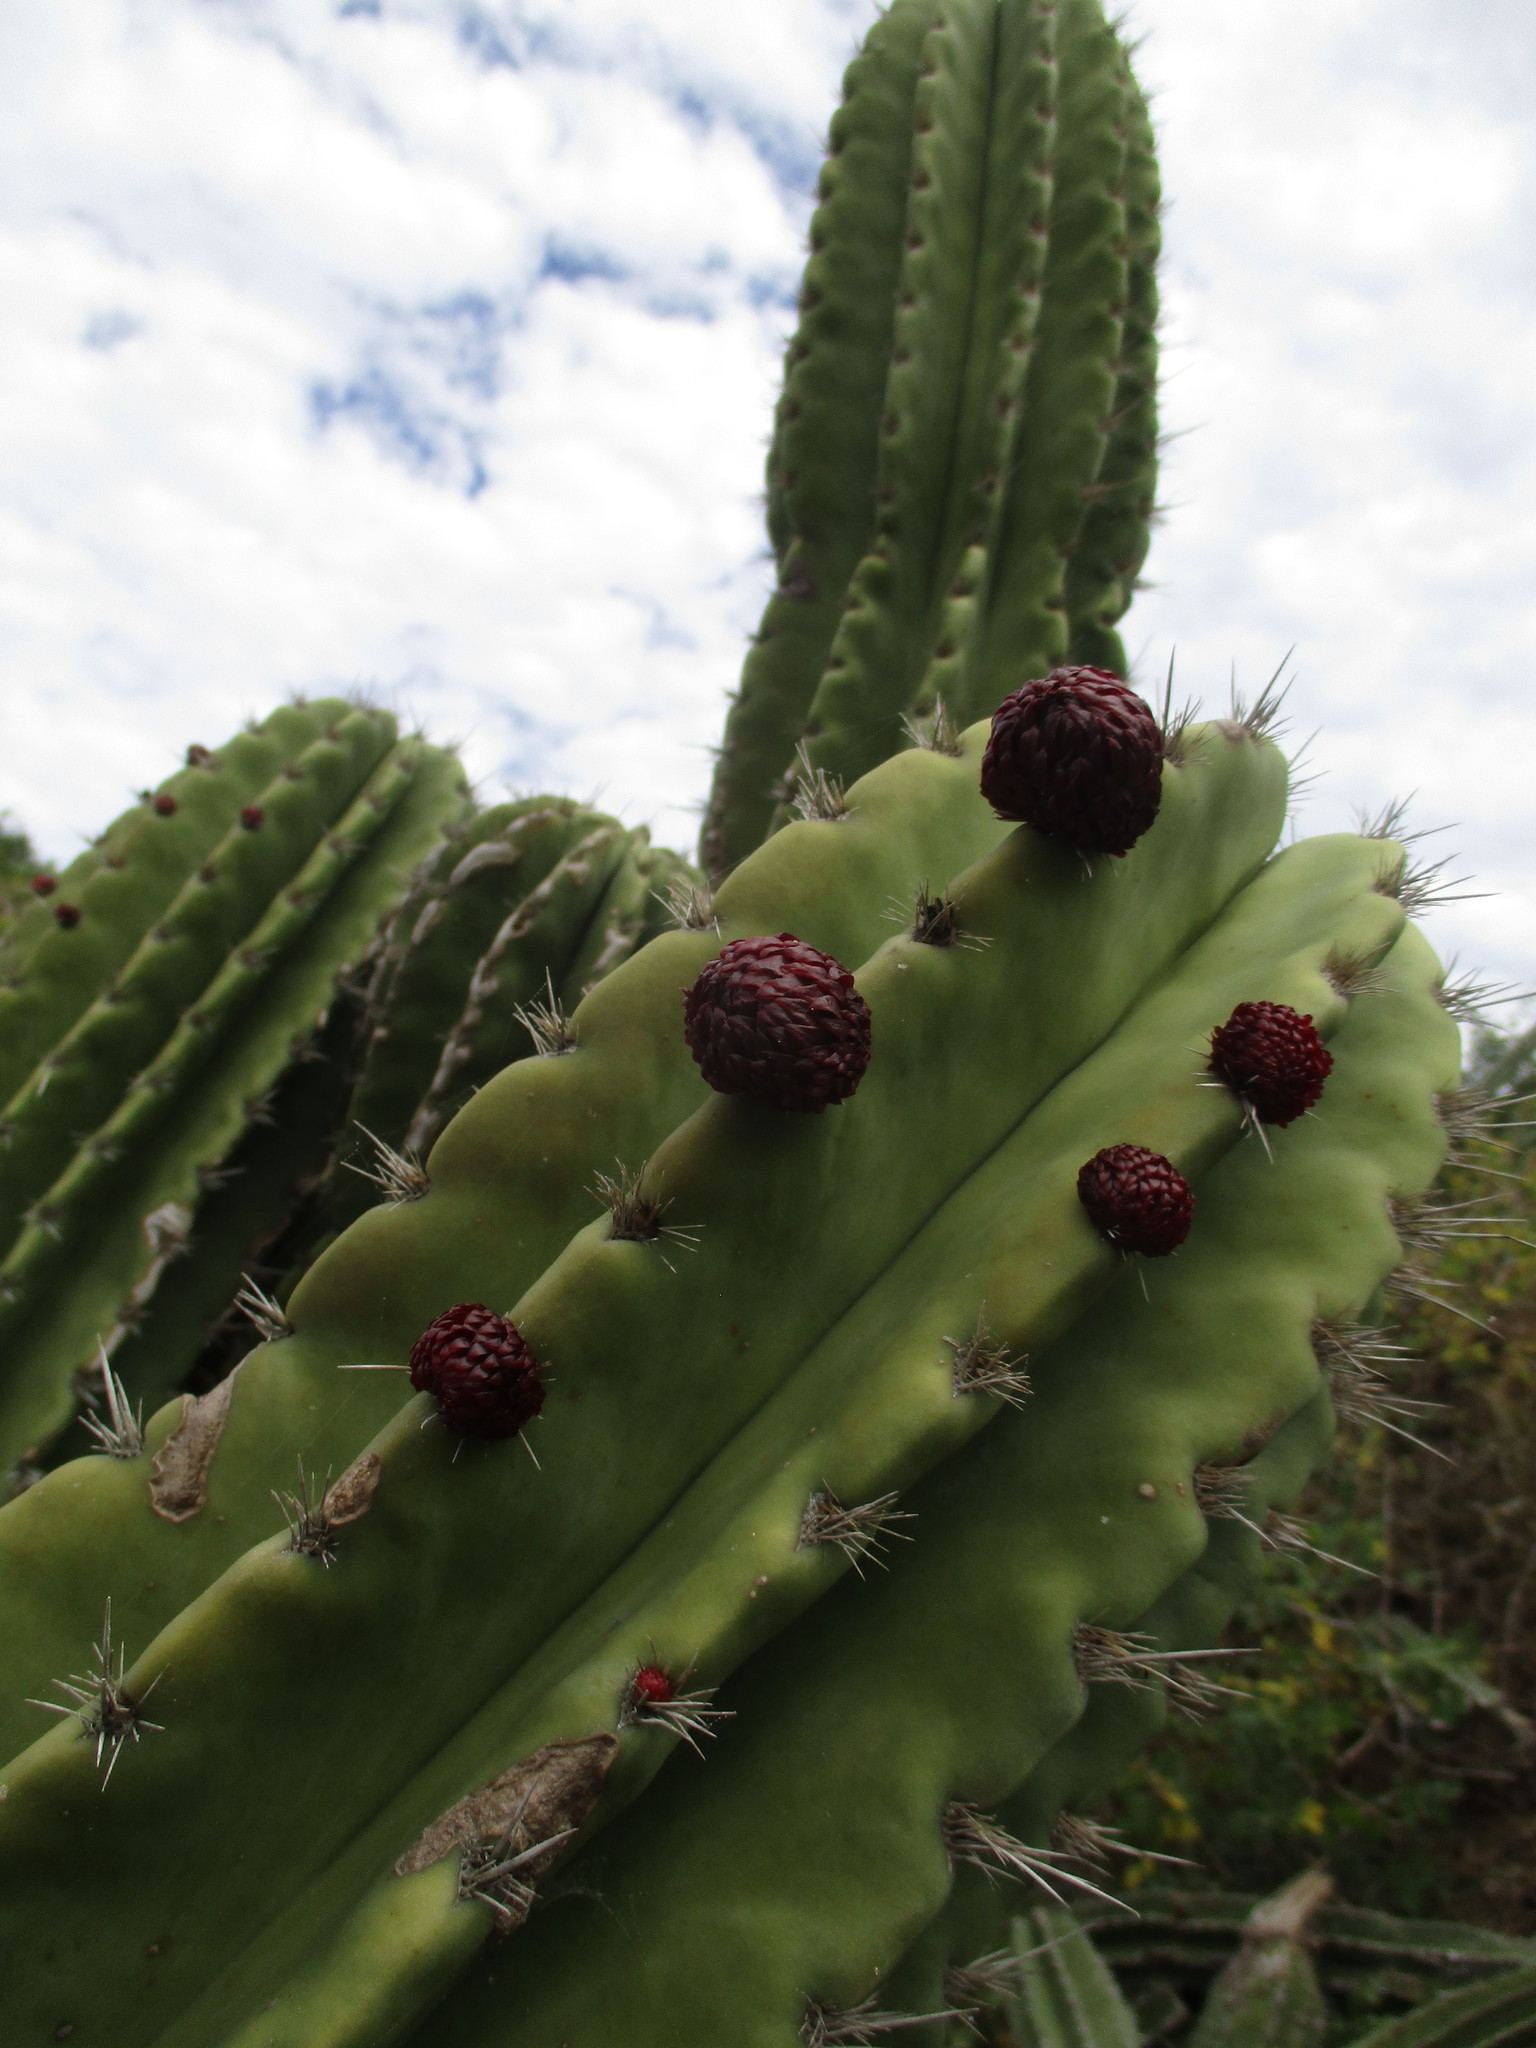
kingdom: Plantae
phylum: Tracheophyta
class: Magnoliopsida
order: Caryophyllales
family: Cactaceae
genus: Pachycereus
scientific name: Pachycereus pecten-aboriginum
